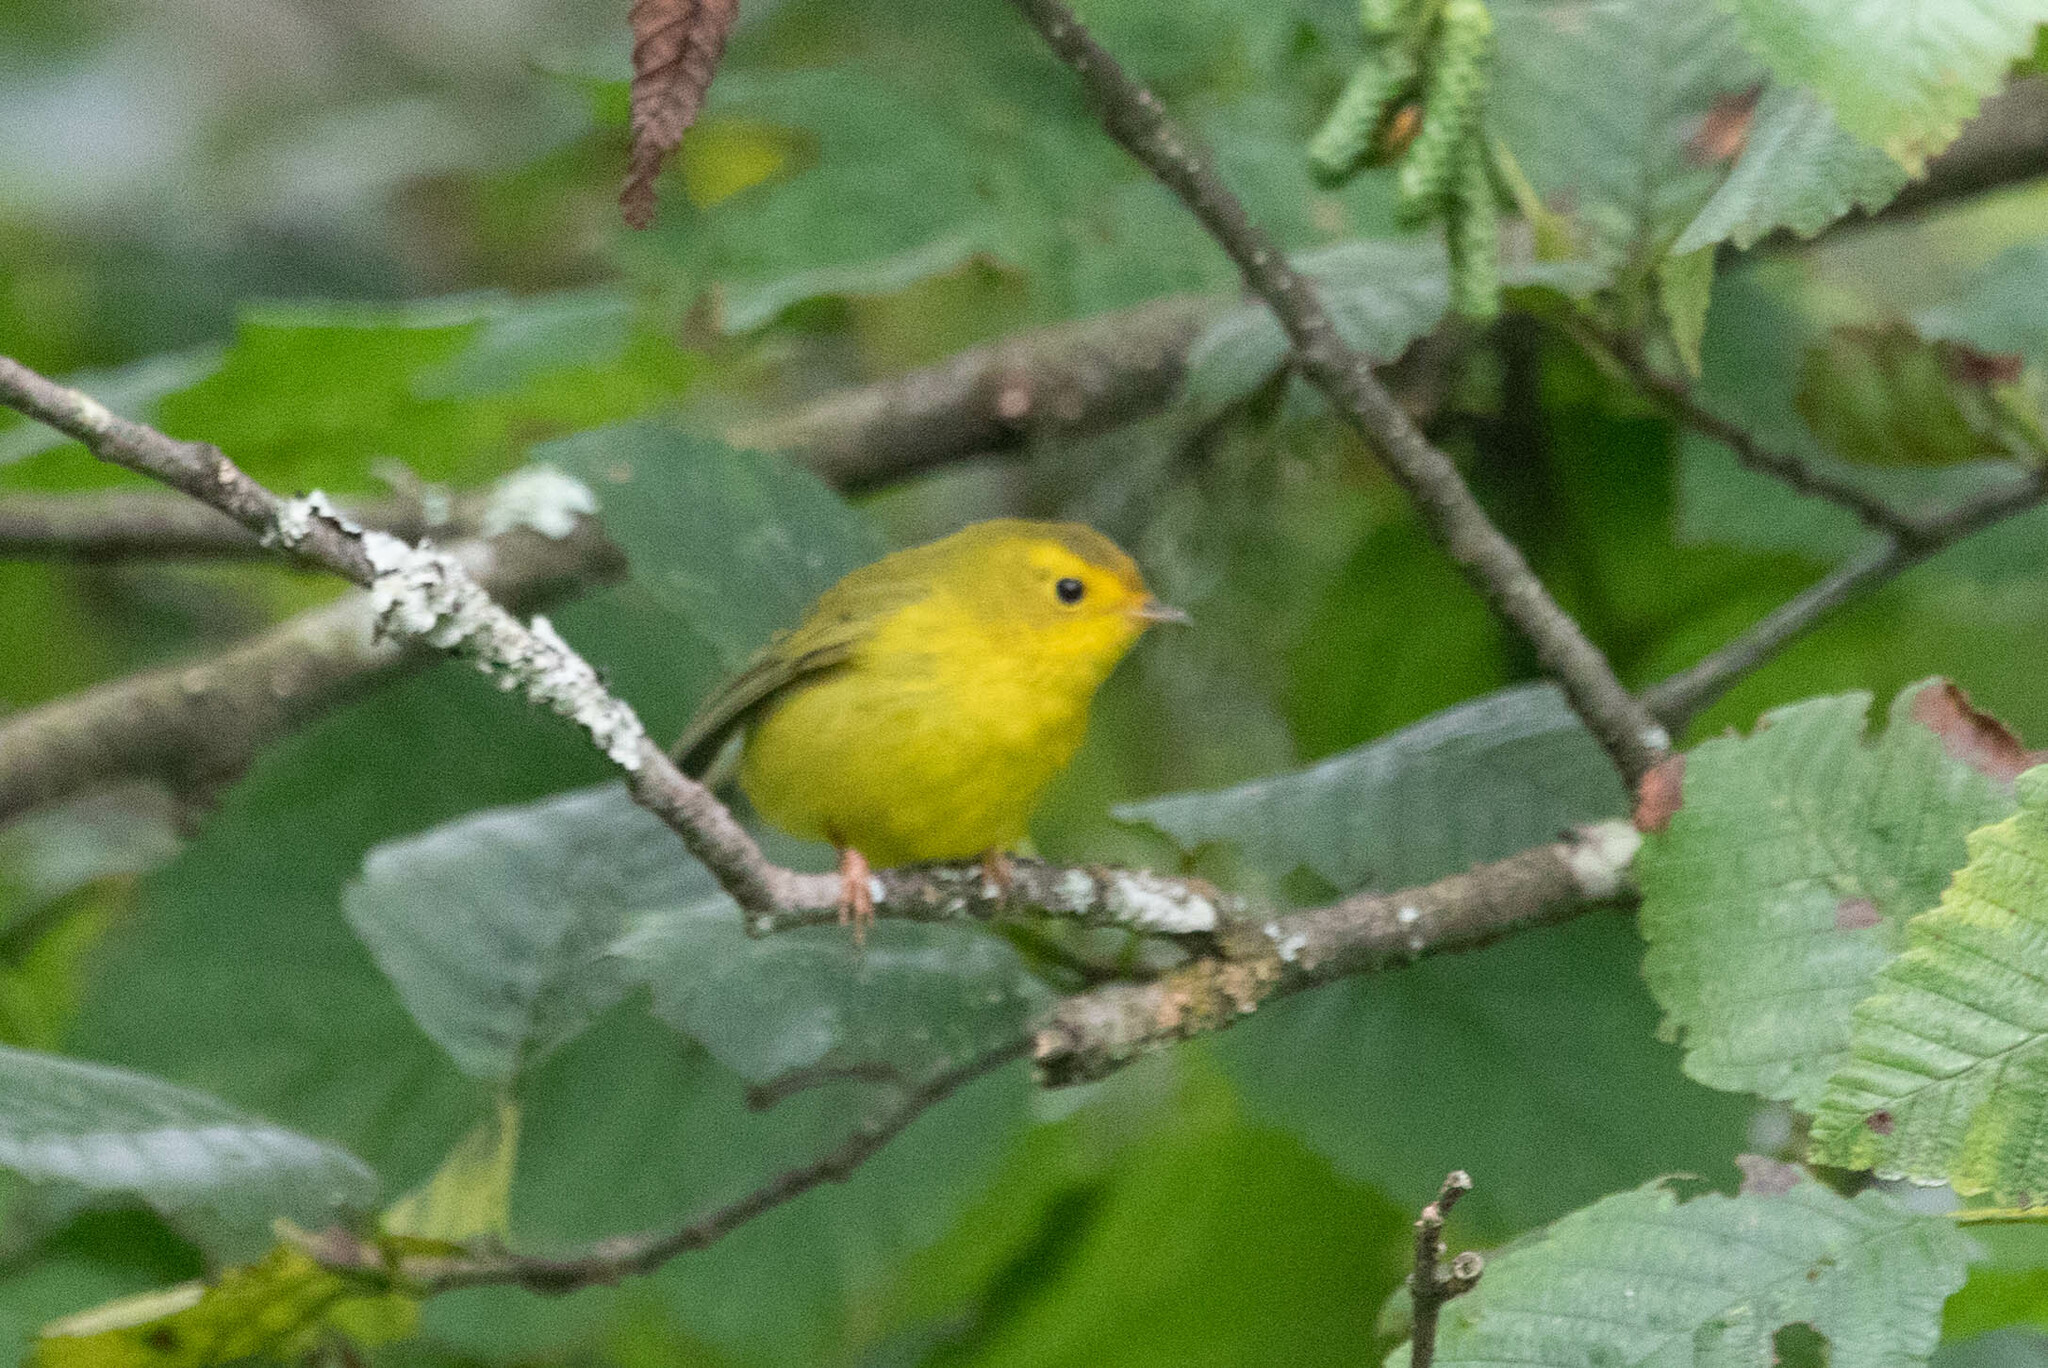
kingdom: Animalia
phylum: Chordata
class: Aves
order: Passeriformes
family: Parulidae
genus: Cardellina
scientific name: Cardellina pusilla
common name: Wilson's warbler
